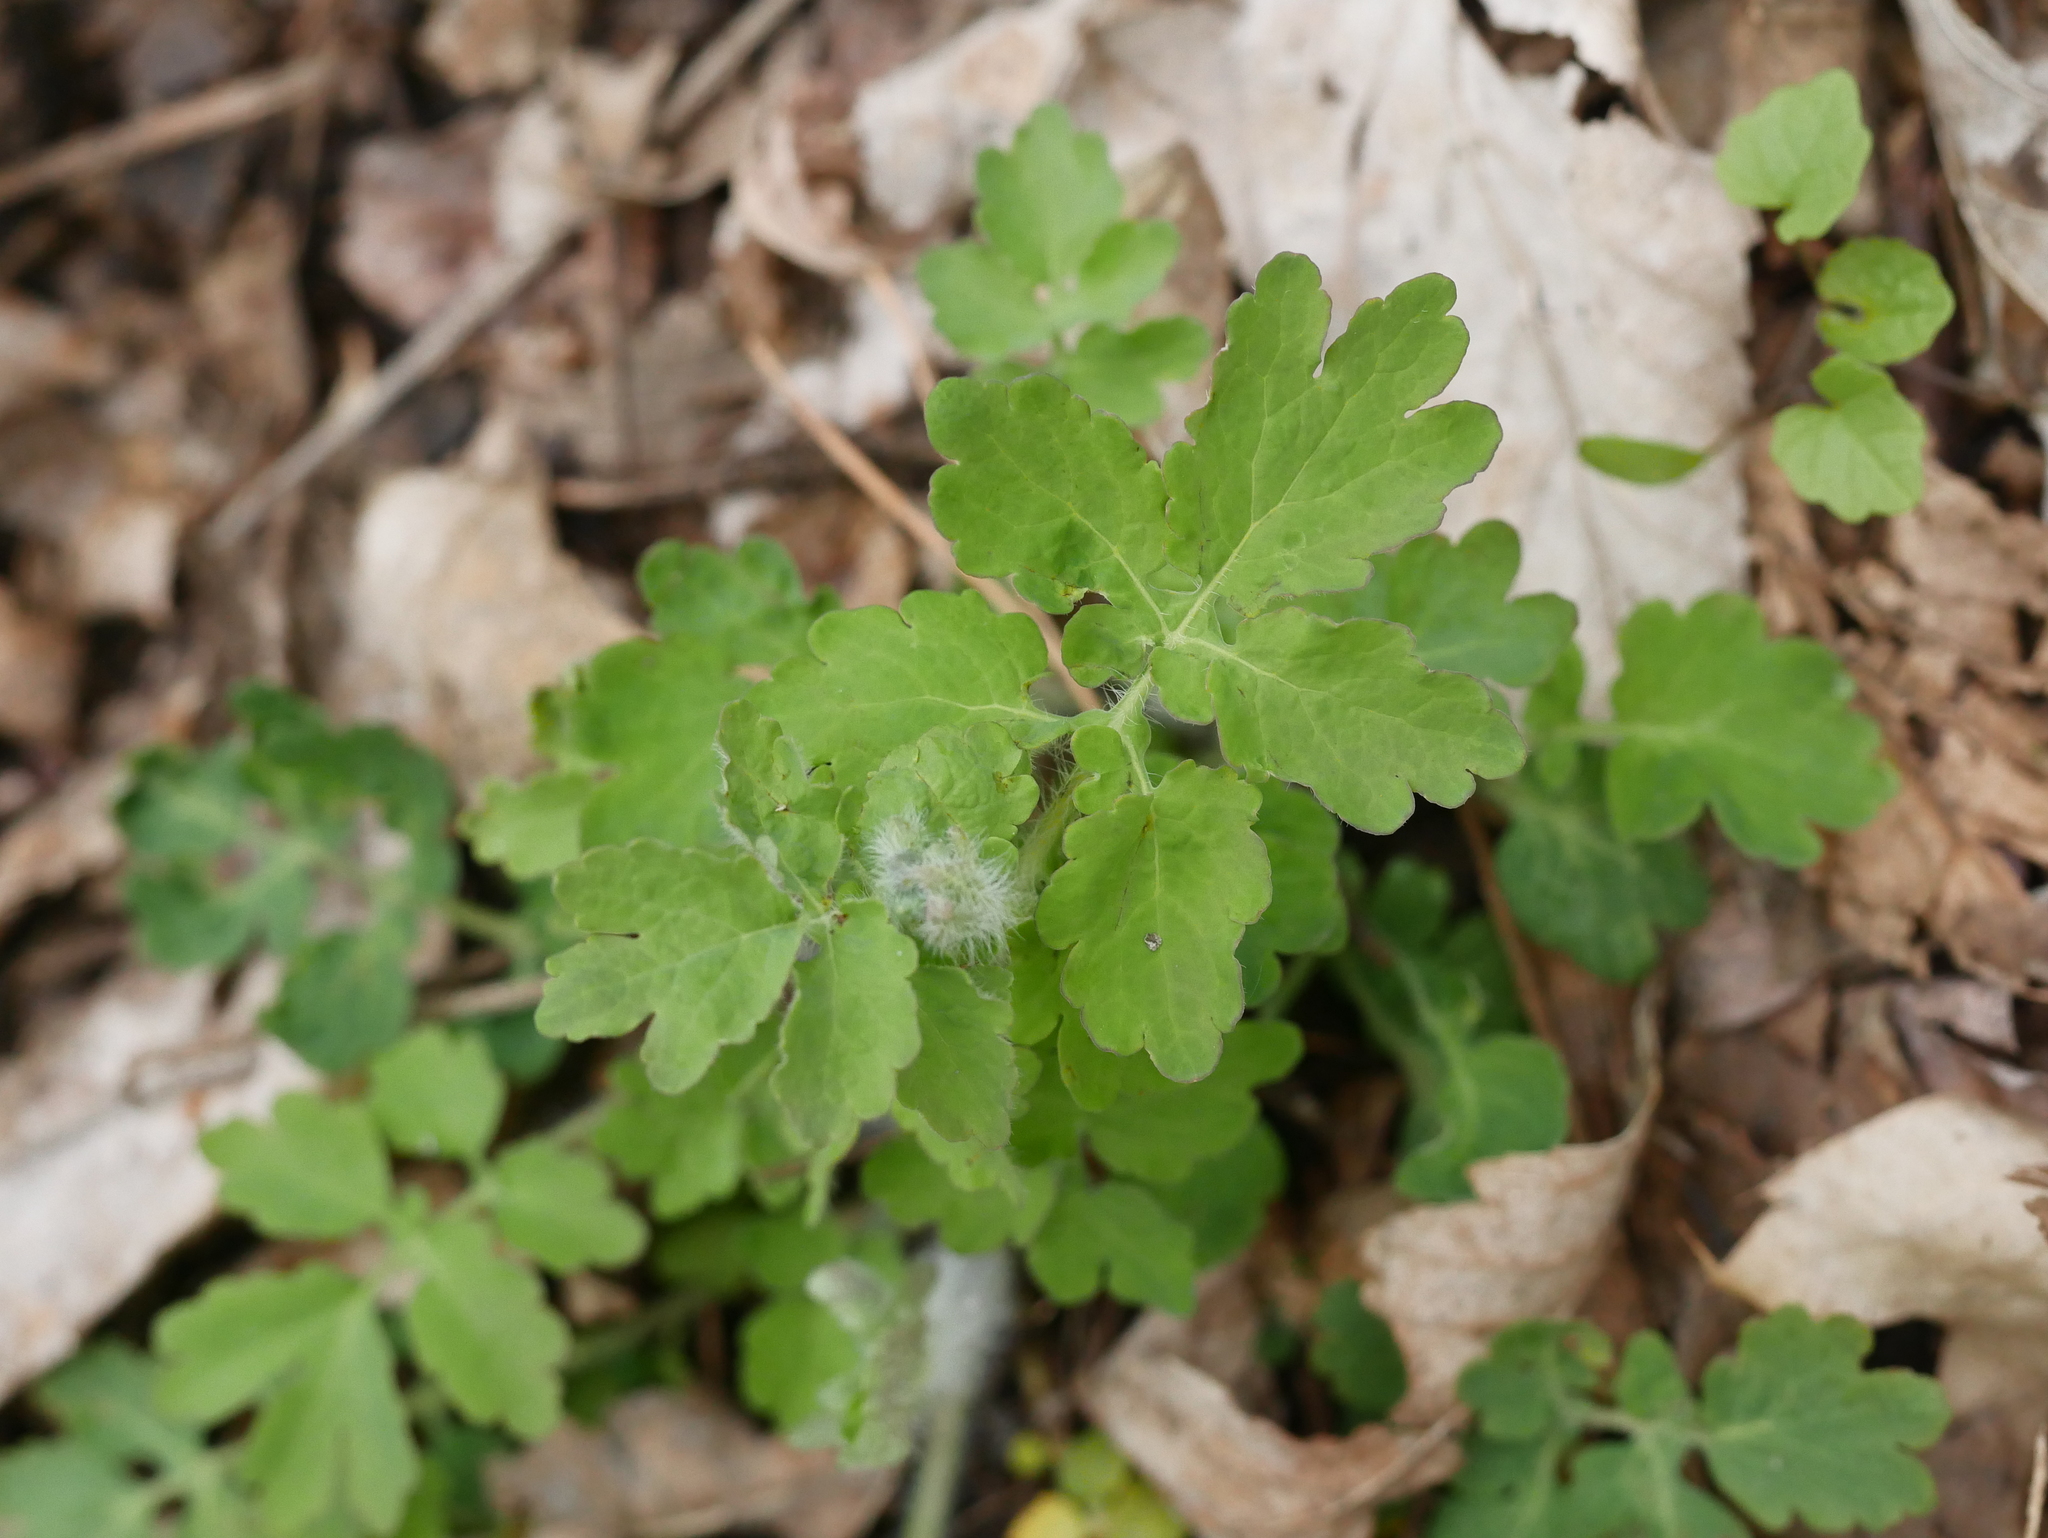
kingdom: Plantae
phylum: Tracheophyta
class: Magnoliopsida
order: Ranunculales
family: Papaveraceae
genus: Chelidonium
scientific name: Chelidonium majus
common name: Greater celandine
